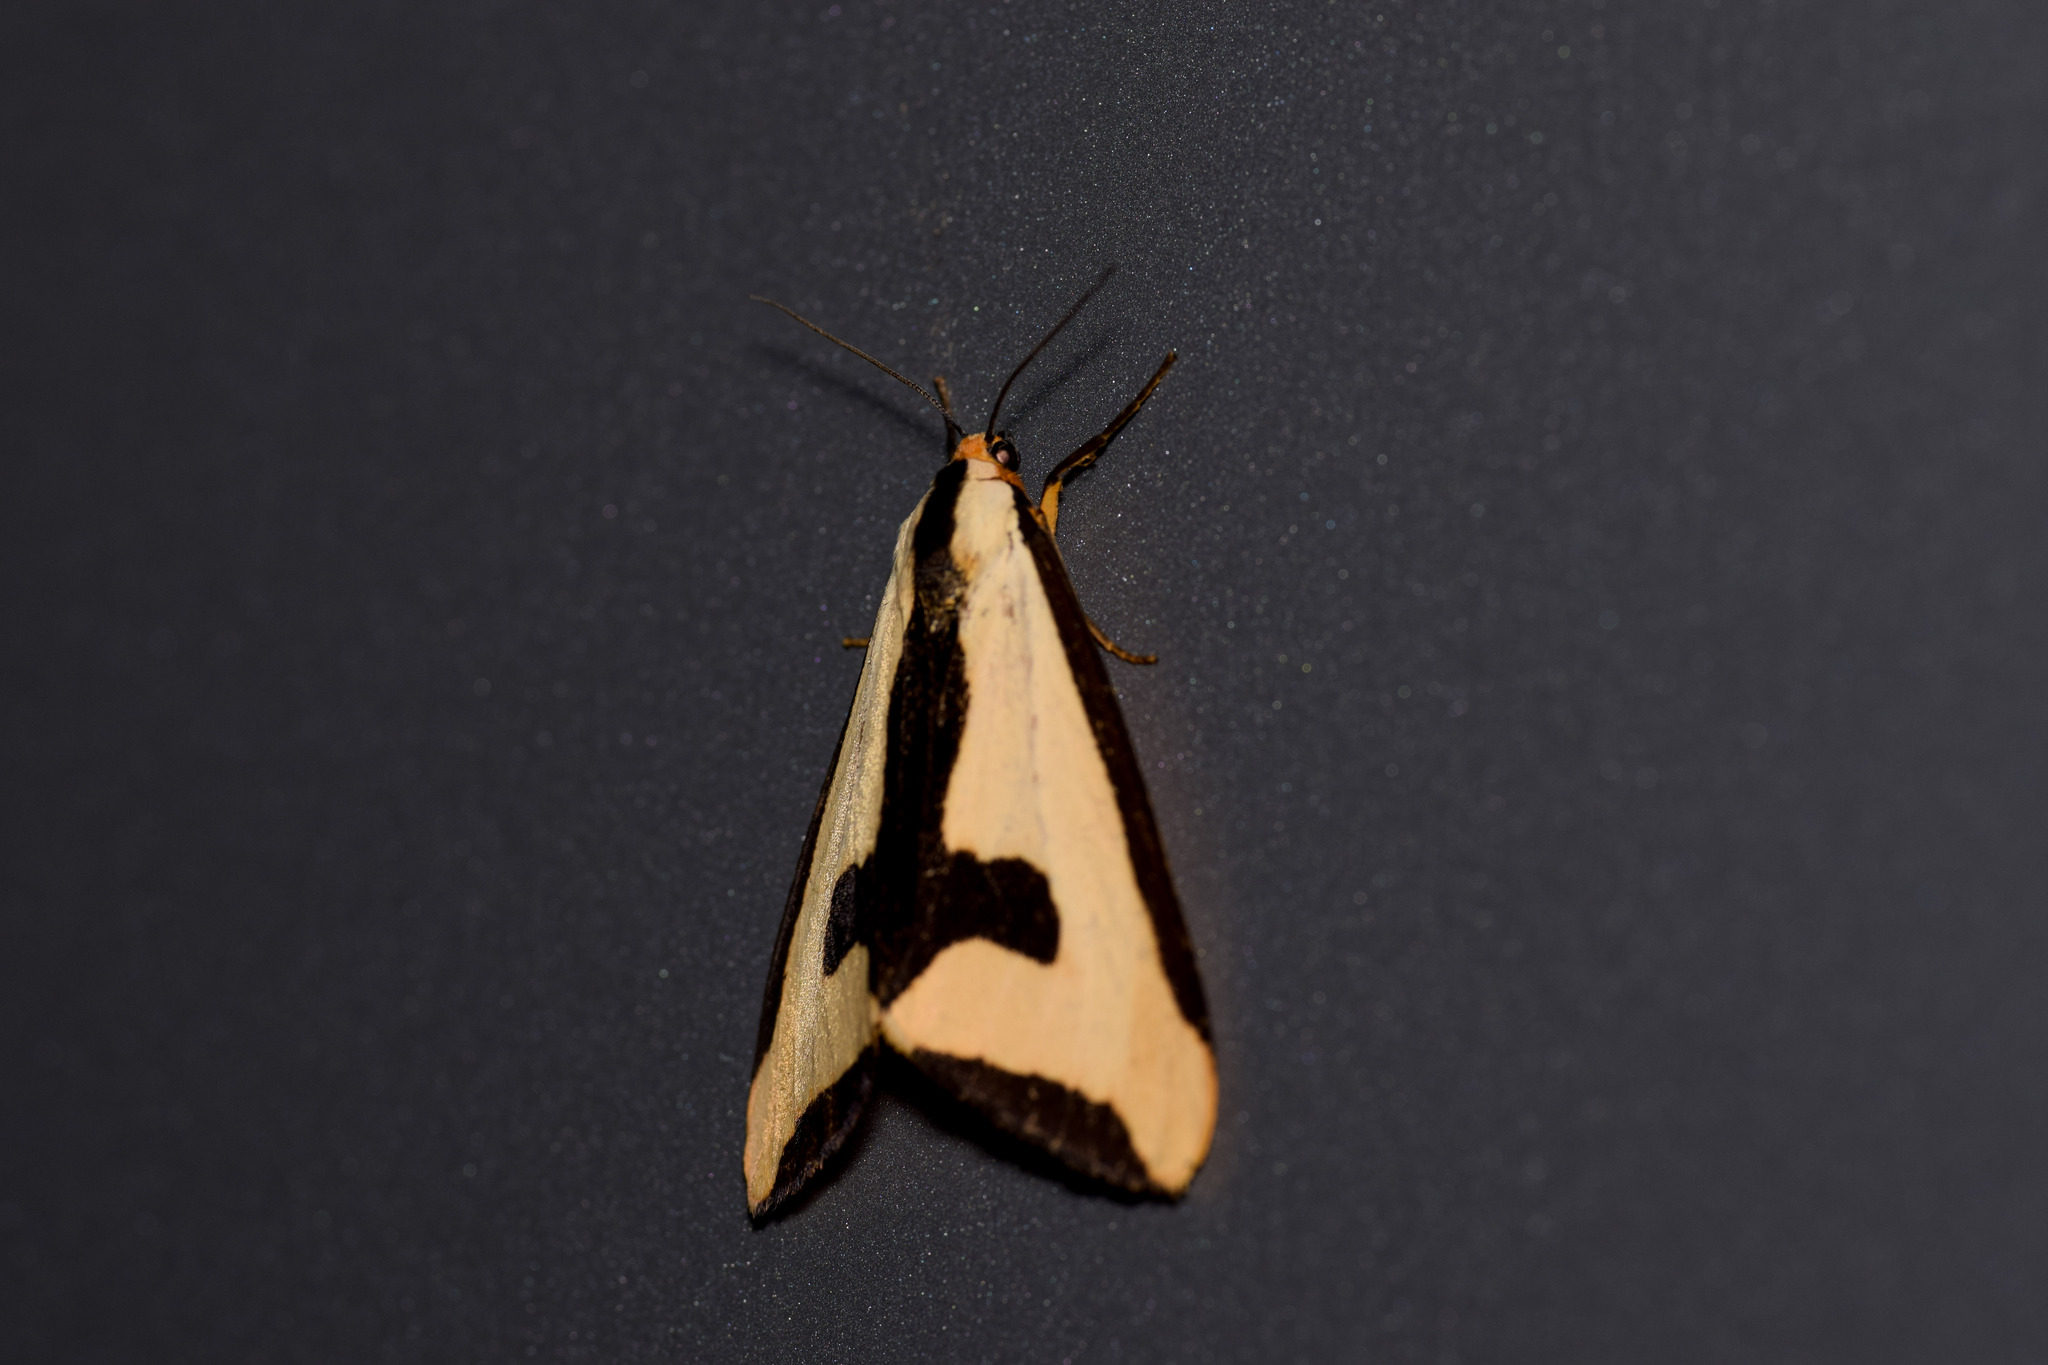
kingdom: Animalia
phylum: Arthropoda
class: Insecta
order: Lepidoptera
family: Erebidae
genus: Haploa
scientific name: Haploa clymene
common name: Clymene moth
